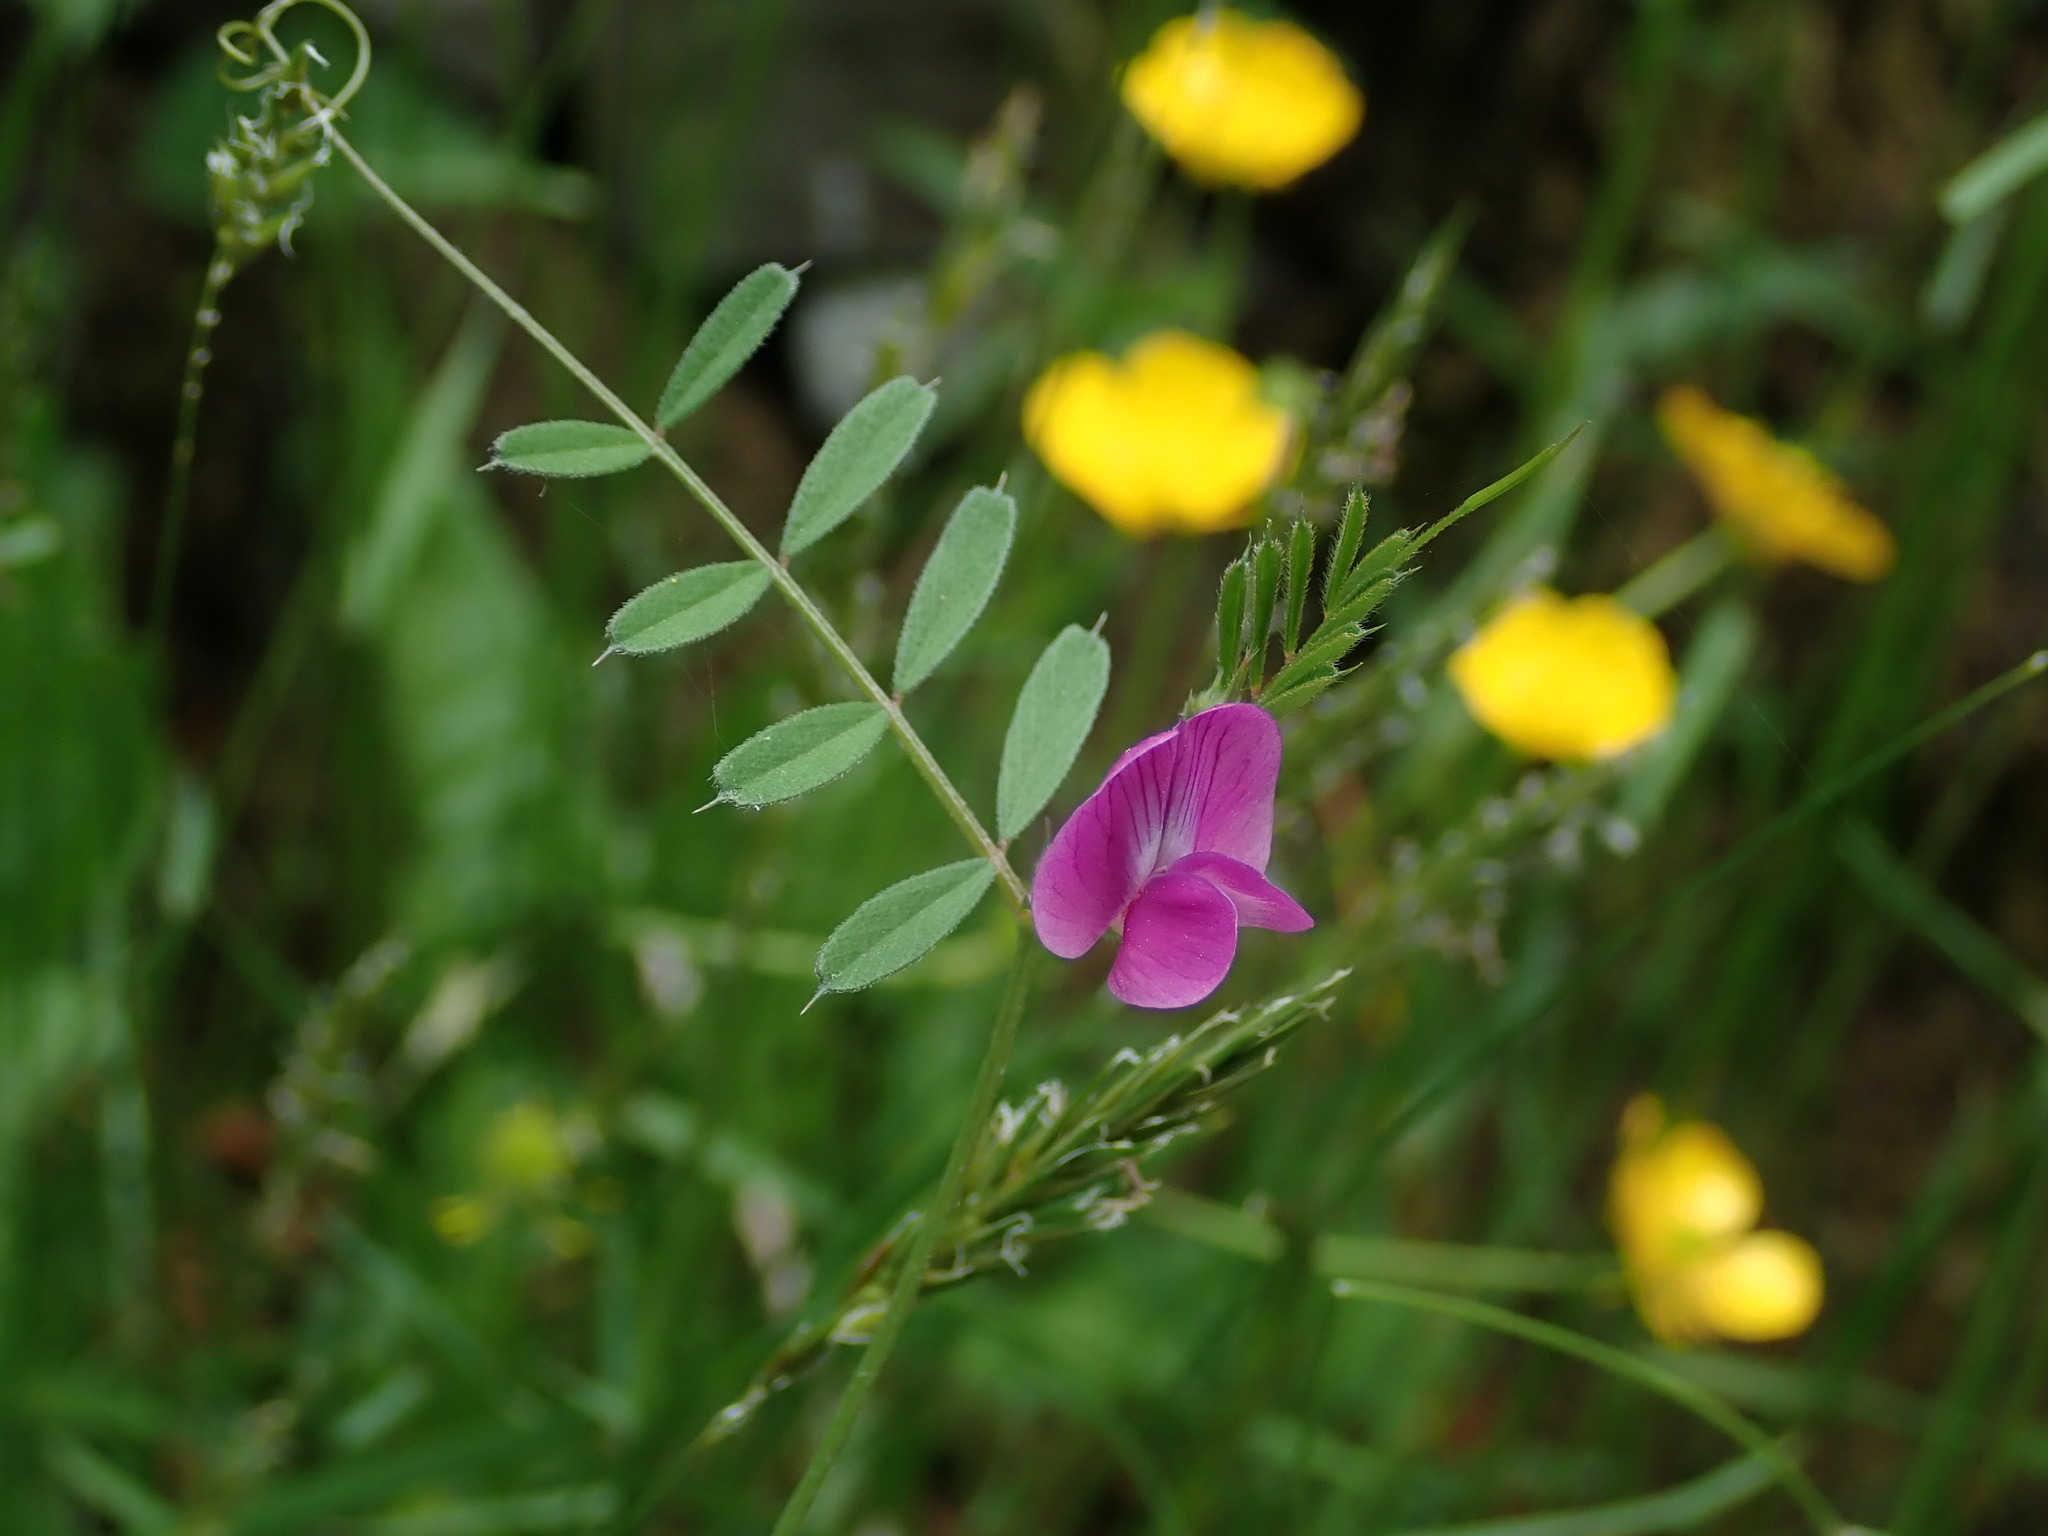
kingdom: Plantae
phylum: Tracheophyta
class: Magnoliopsida
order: Fabales
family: Fabaceae
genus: Vicia
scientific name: Vicia sativa
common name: Garden vetch
